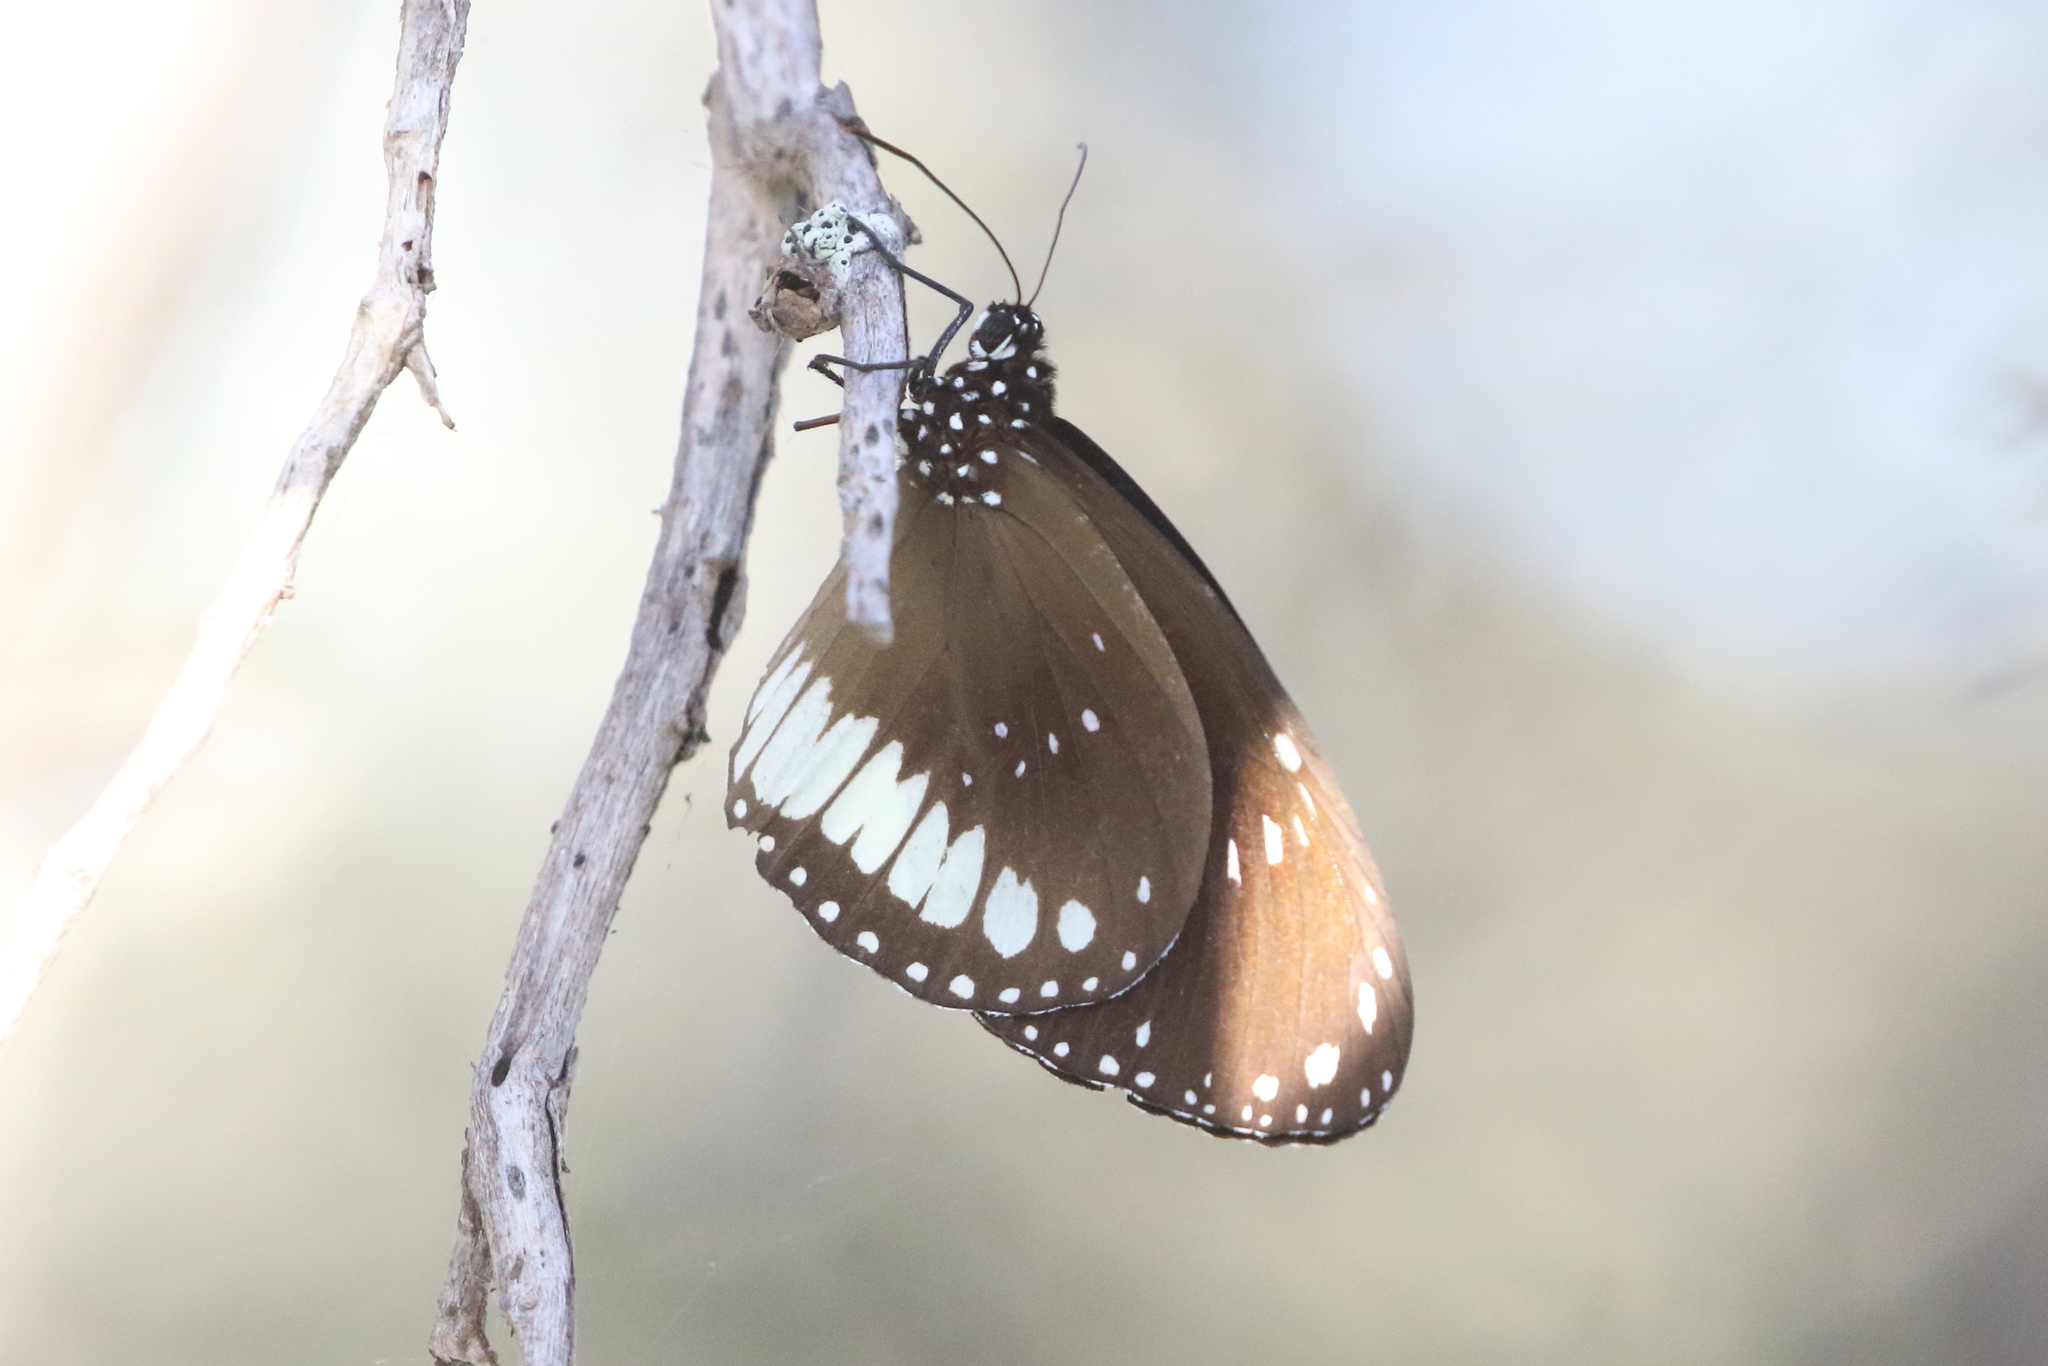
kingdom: Animalia
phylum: Arthropoda
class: Insecta
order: Lepidoptera
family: Nymphalidae
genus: Euploea
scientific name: Euploea alcathoe
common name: No-brand crow
